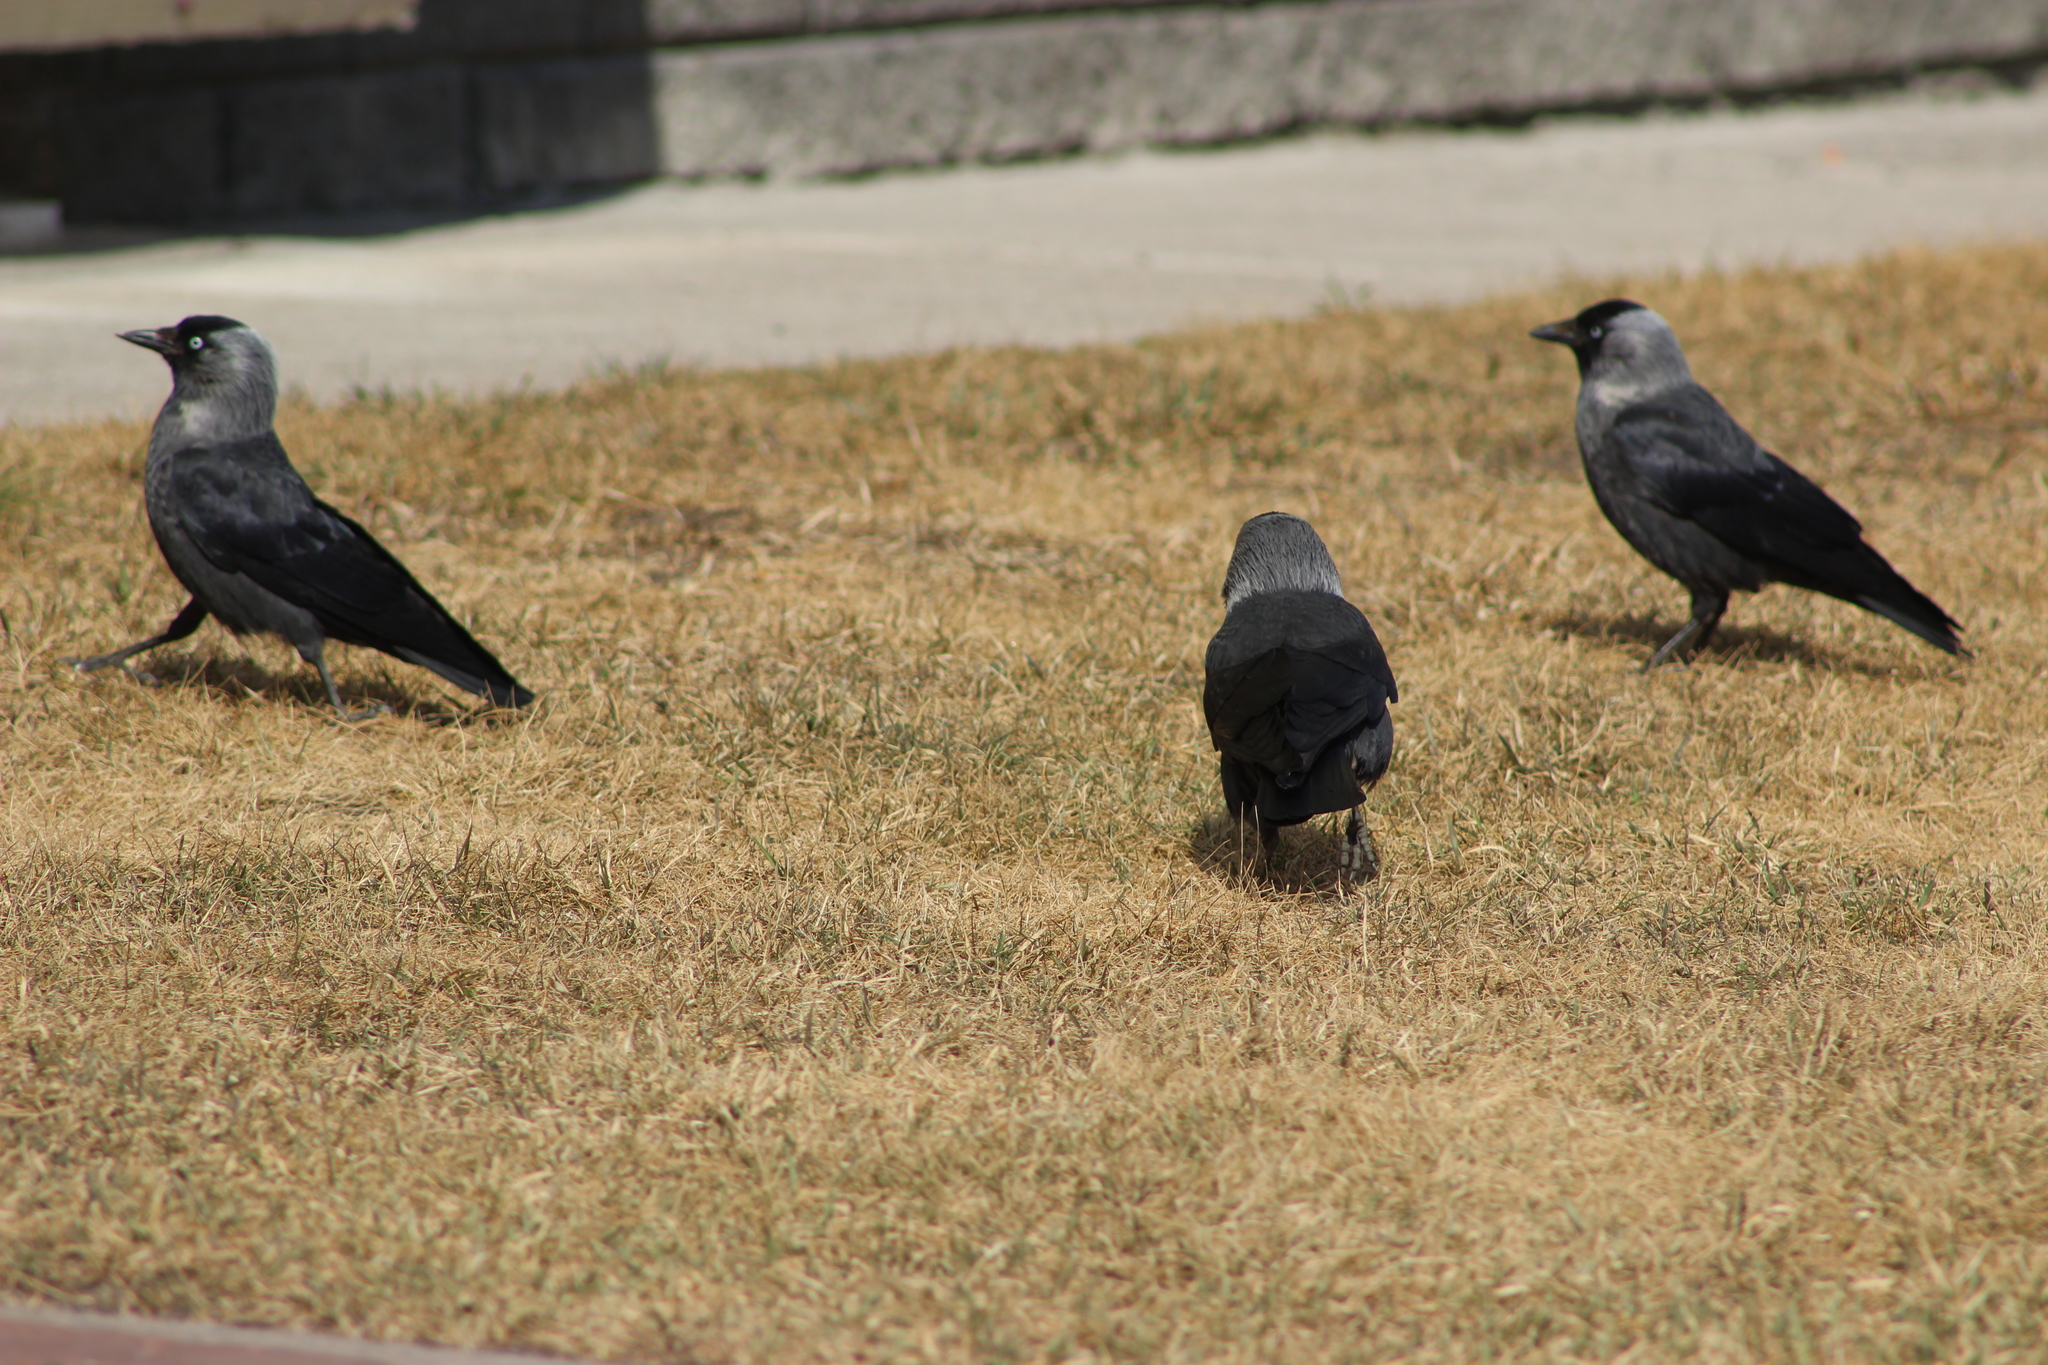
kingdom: Animalia
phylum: Chordata
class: Aves
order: Passeriformes
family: Corvidae
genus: Coloeus
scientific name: Coloeus monedula
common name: Western jackdaw
